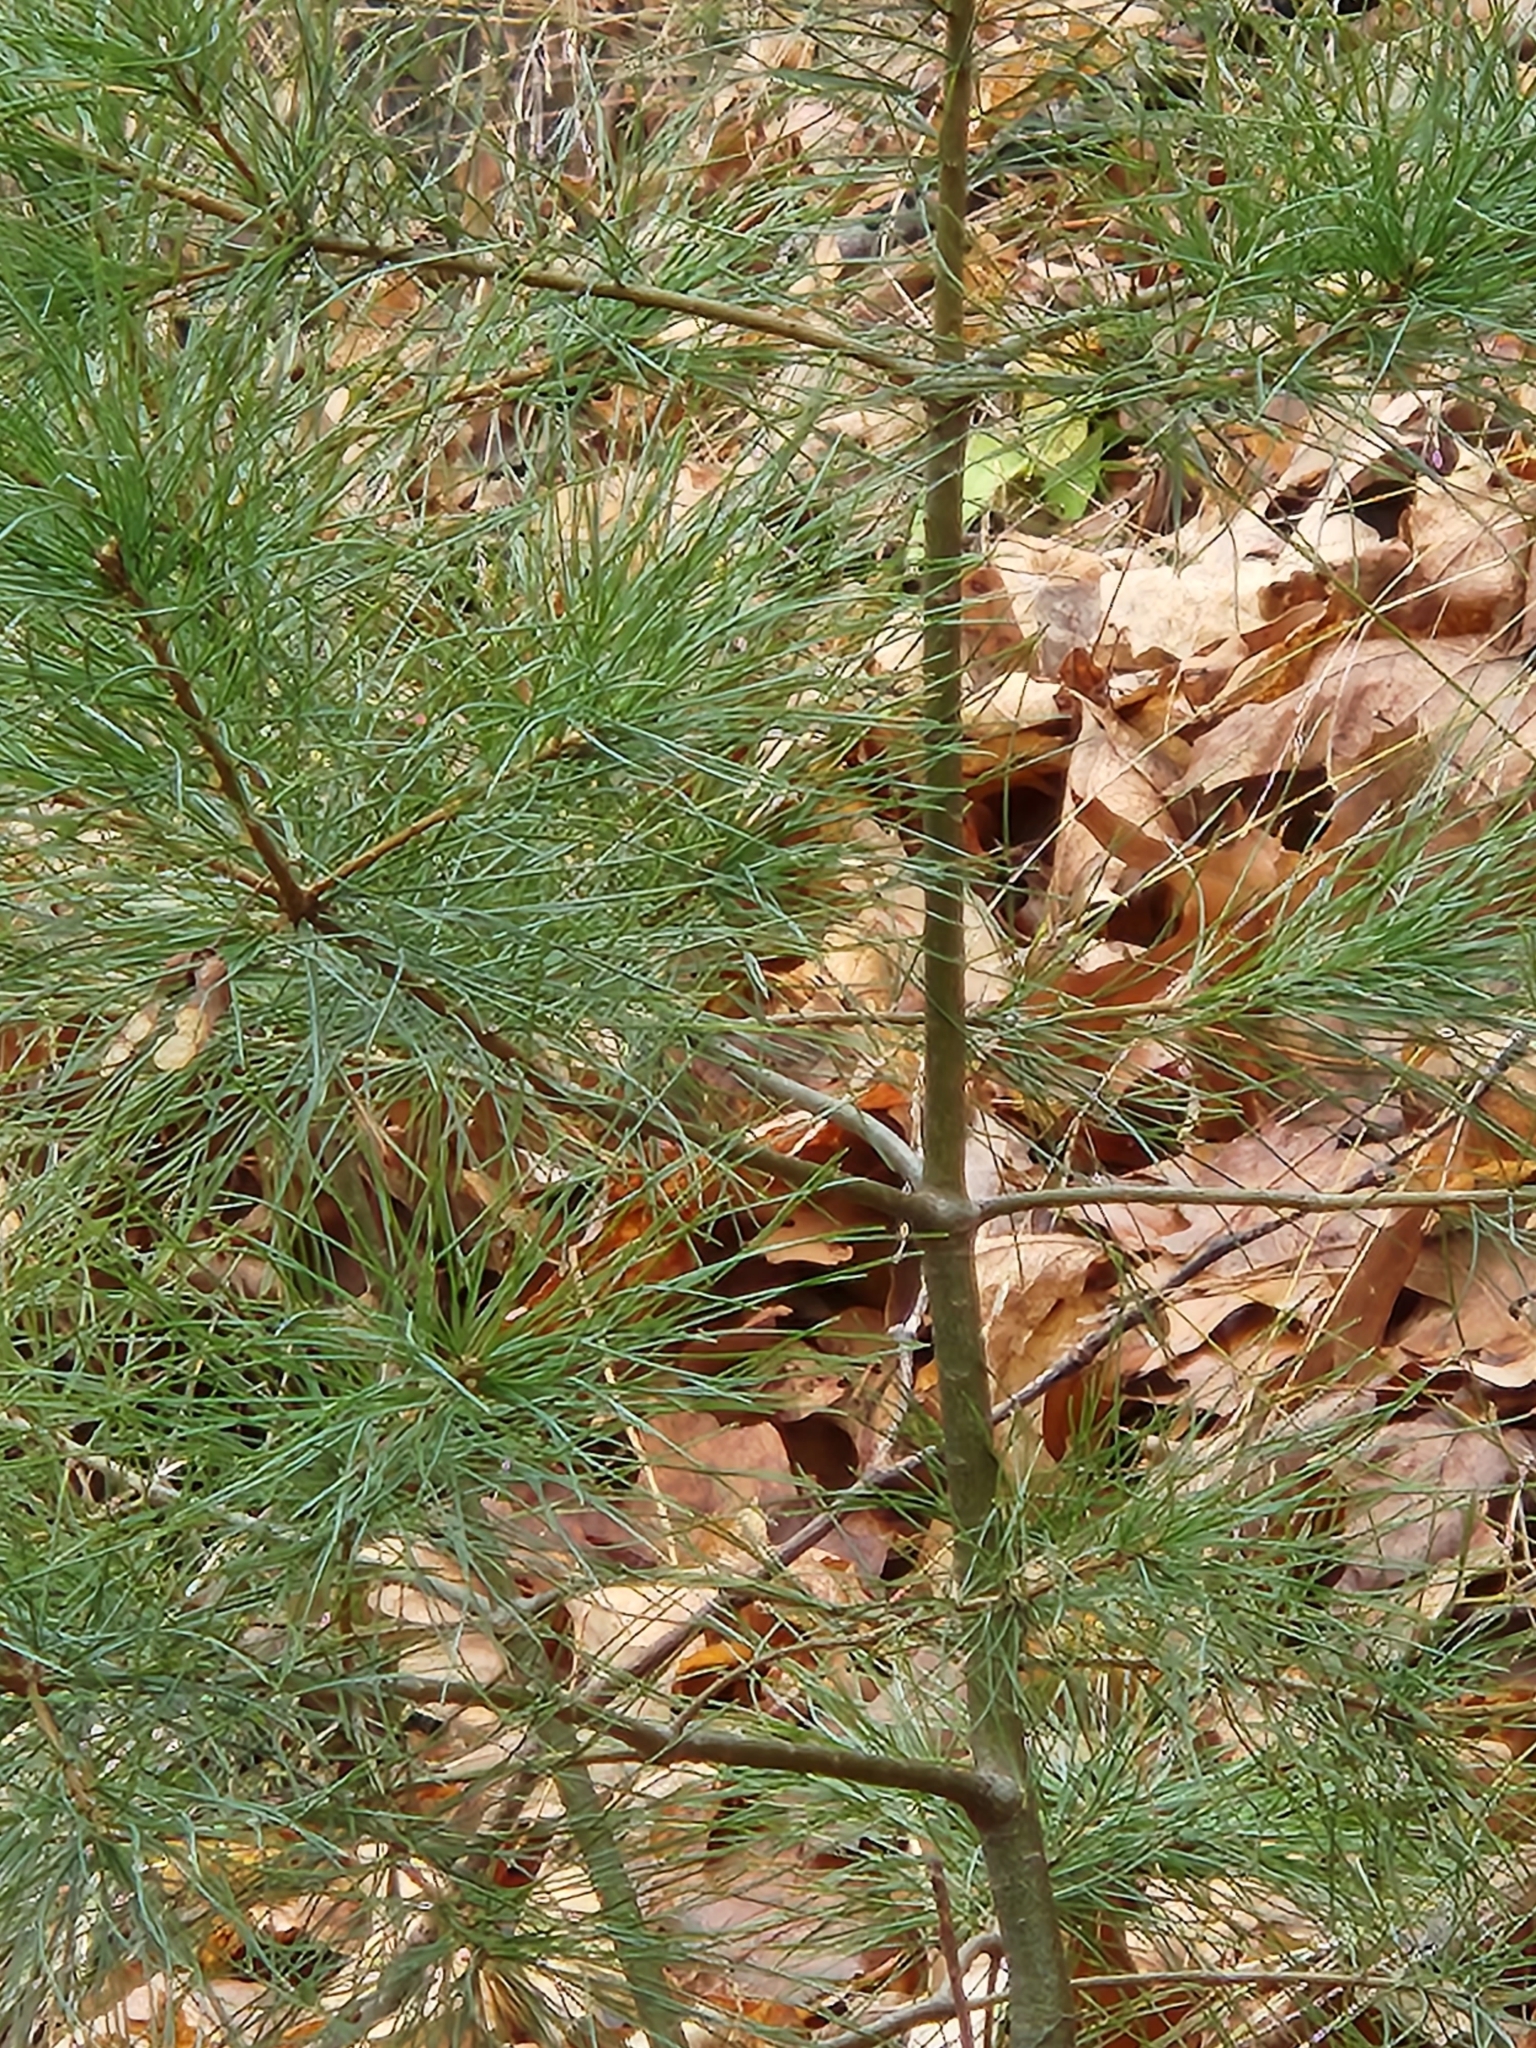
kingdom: Plantae
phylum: Tracheophyta
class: Pinopsida
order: Pinales
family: Pinaceae
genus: Pinus
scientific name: Pinus strobus
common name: Weymouth pine
